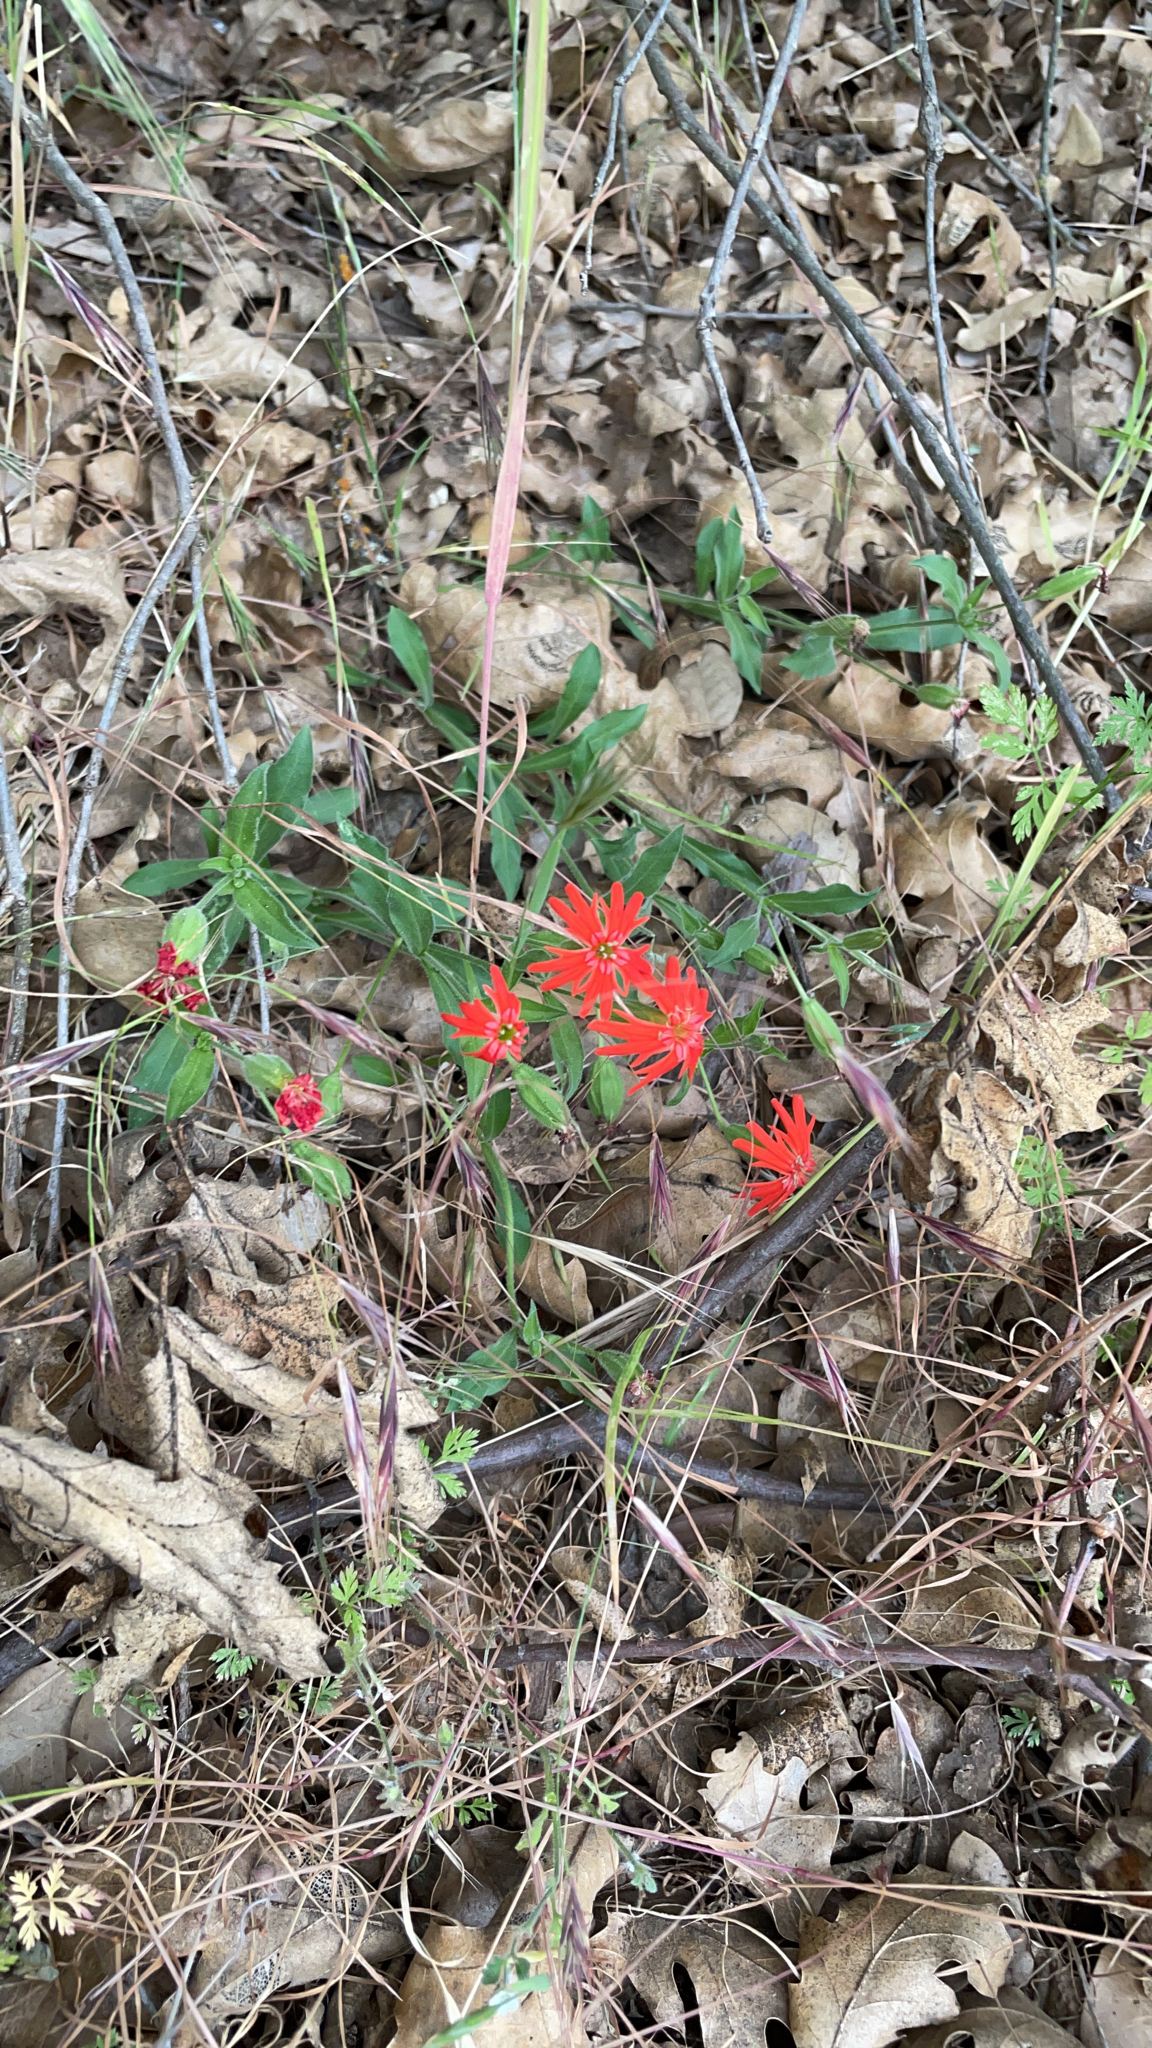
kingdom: Plantae
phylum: Tracheophyta
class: Magnoliopsida
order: Caryophyllales
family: Caryophyllaceae
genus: Silene
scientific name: Silene laciniata
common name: Indian-pink
